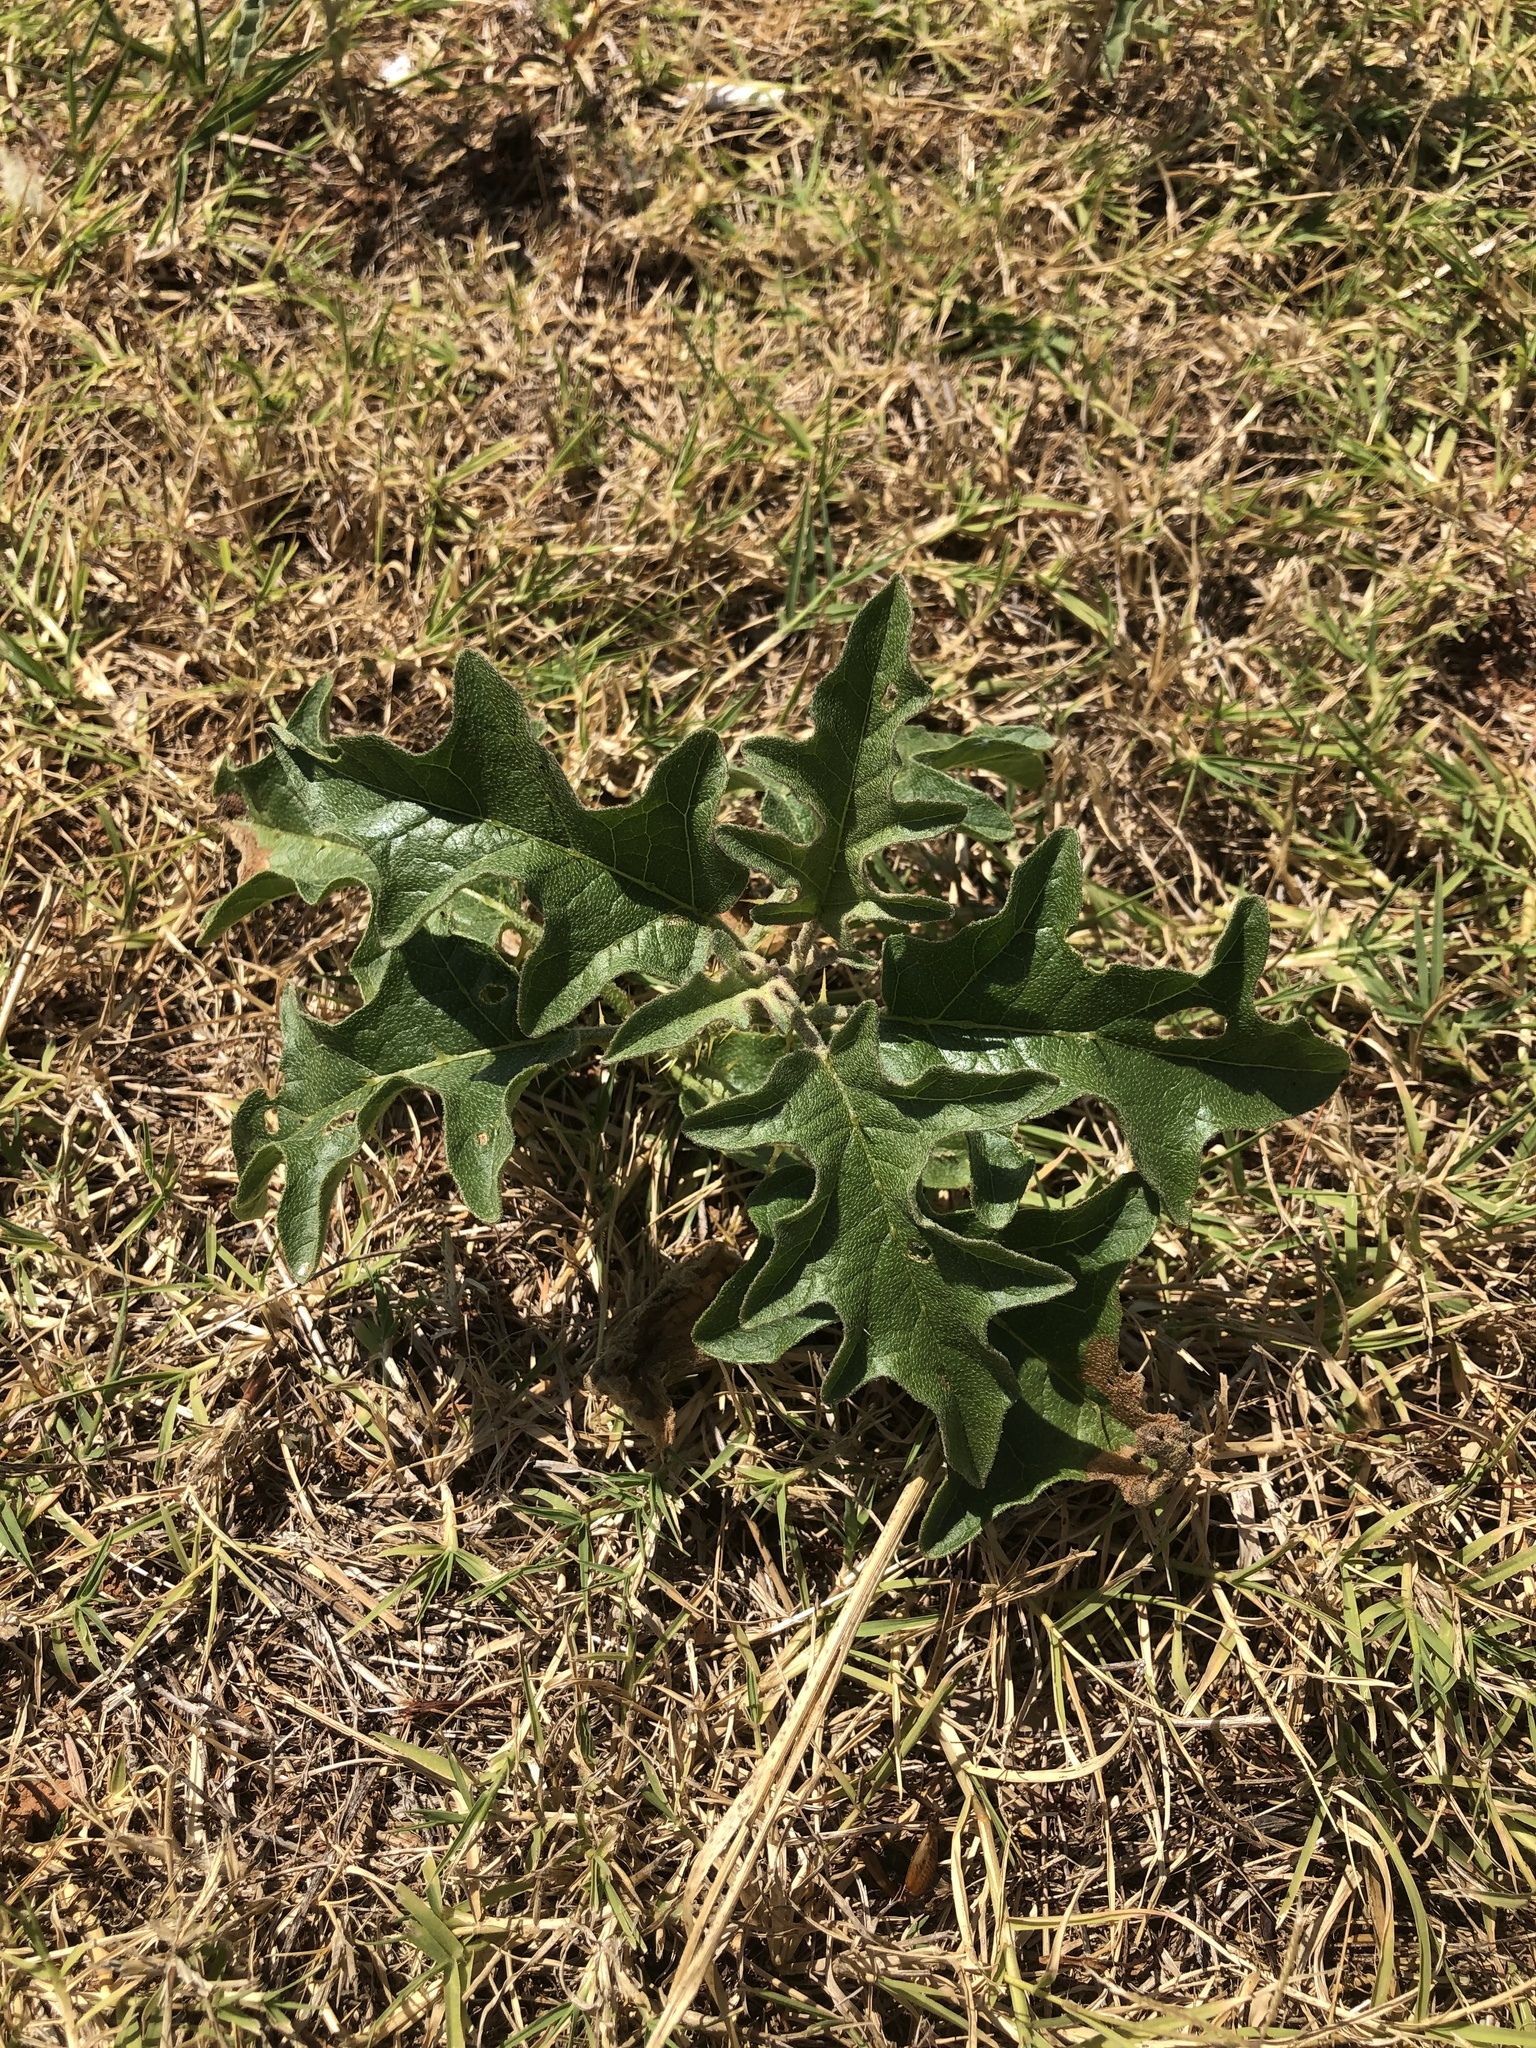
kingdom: Plantae
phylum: Tracheophyta
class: Magnoliopsida
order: Solanales
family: Solanaceae
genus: Solanum
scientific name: Solanum dimidiatum
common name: Carolina horse-nettle
